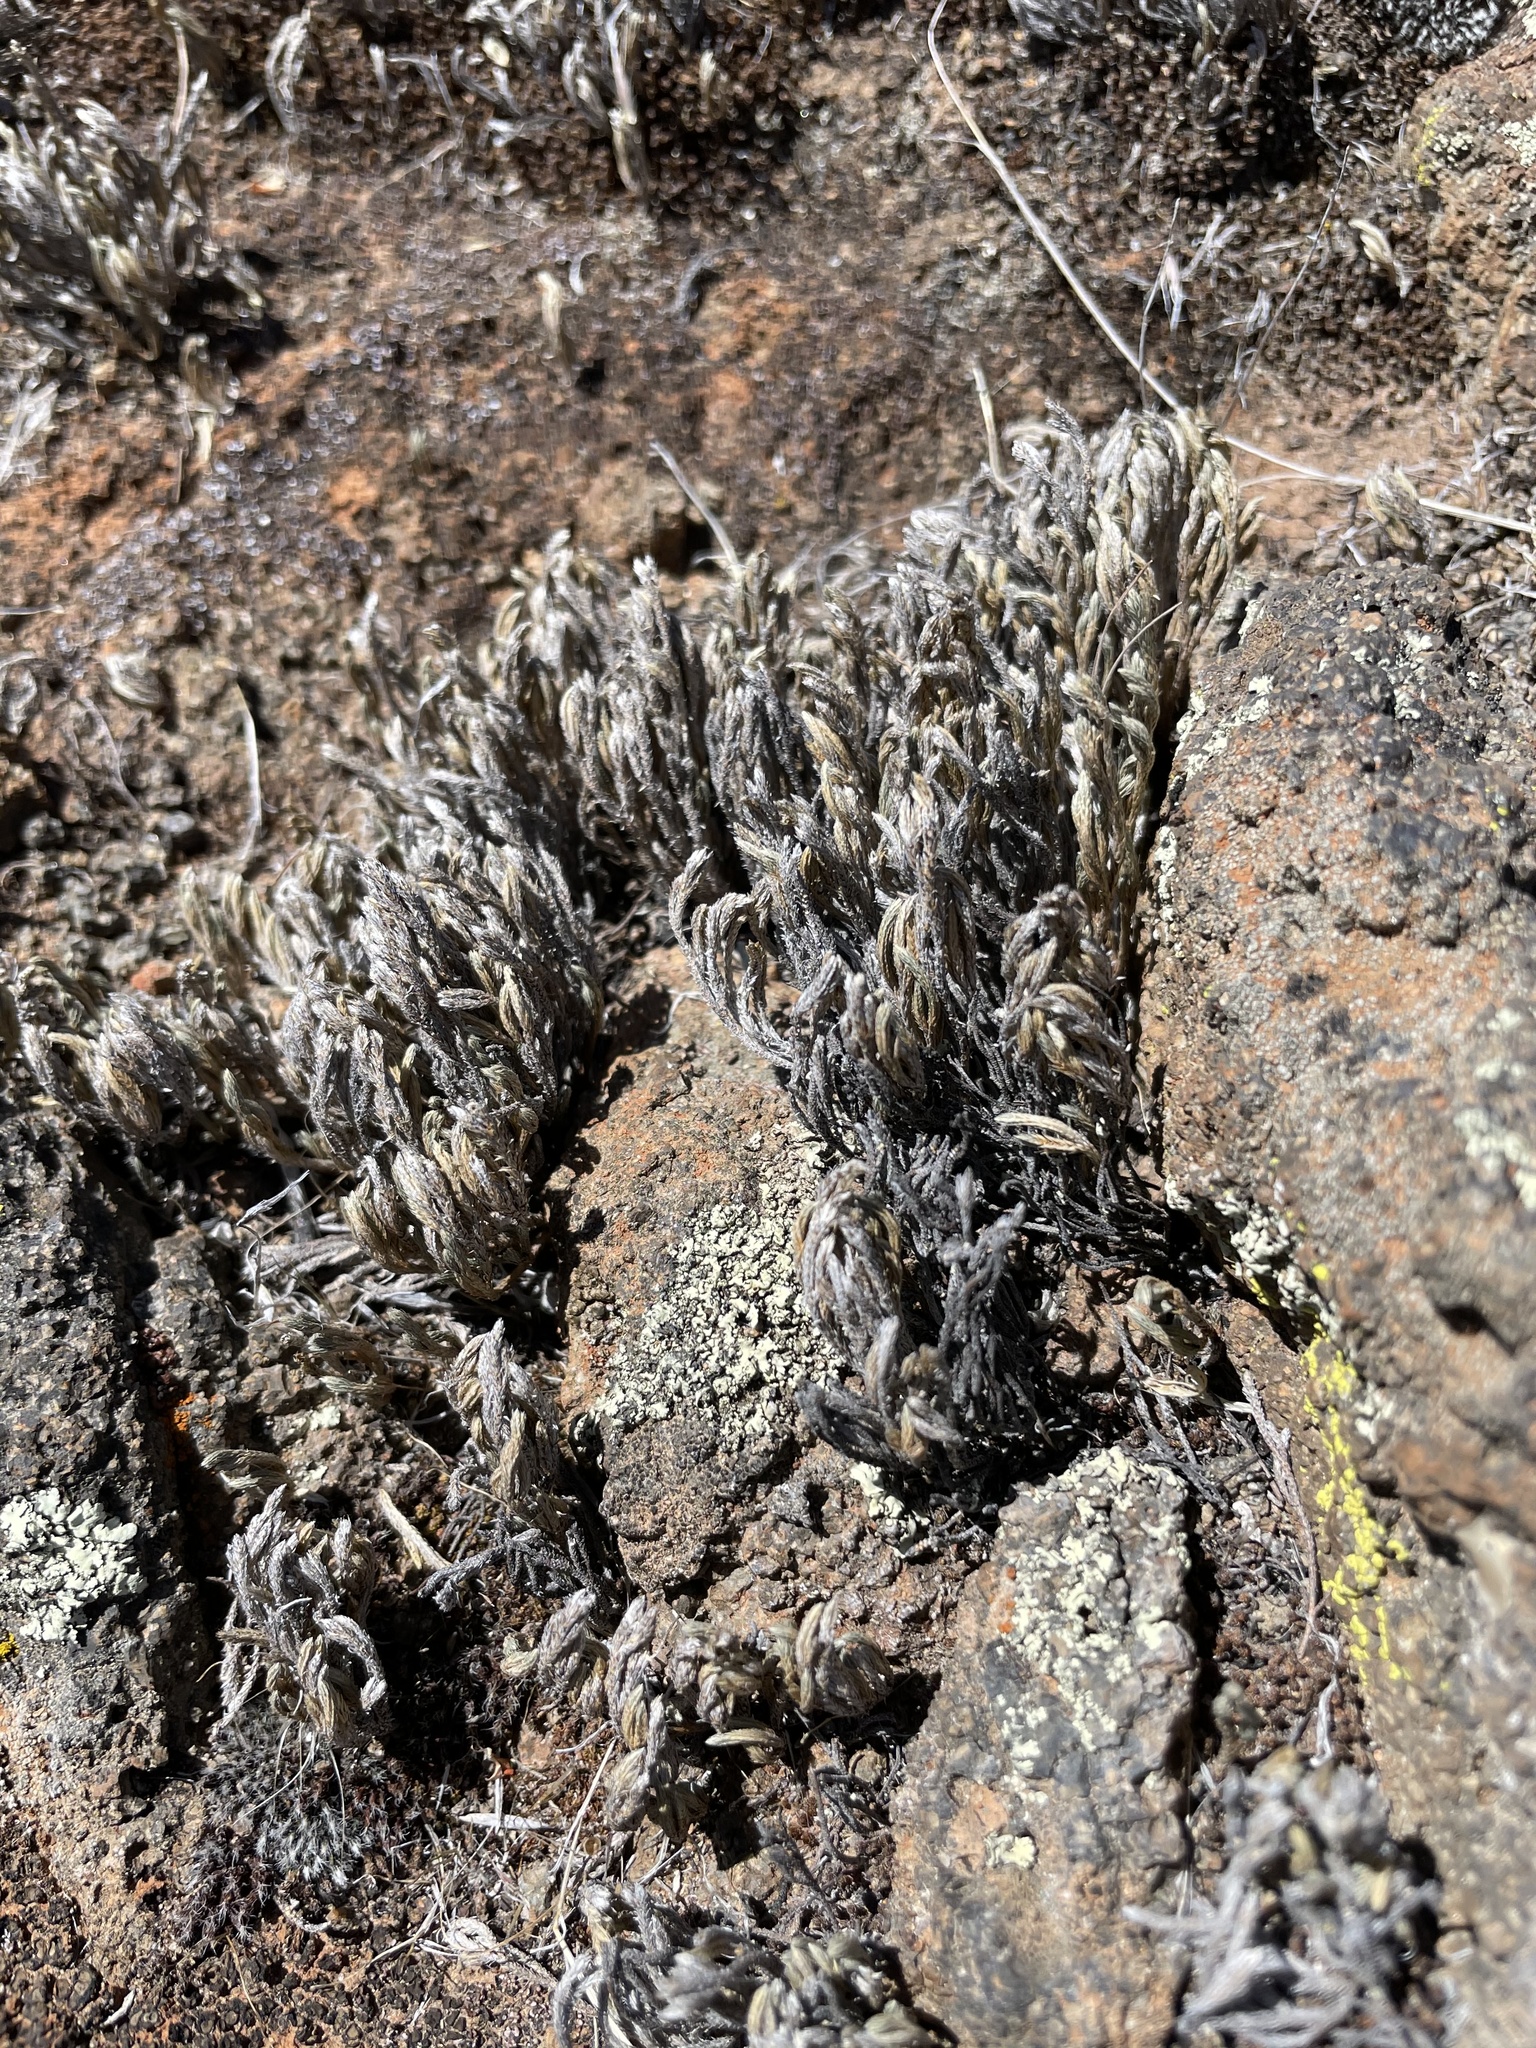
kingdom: Plantae
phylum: Tracheophyta
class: Lycopodiopsida
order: Selaginellales
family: Selaginellaceae
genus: Selaginella
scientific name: Selaginella bigelovii
